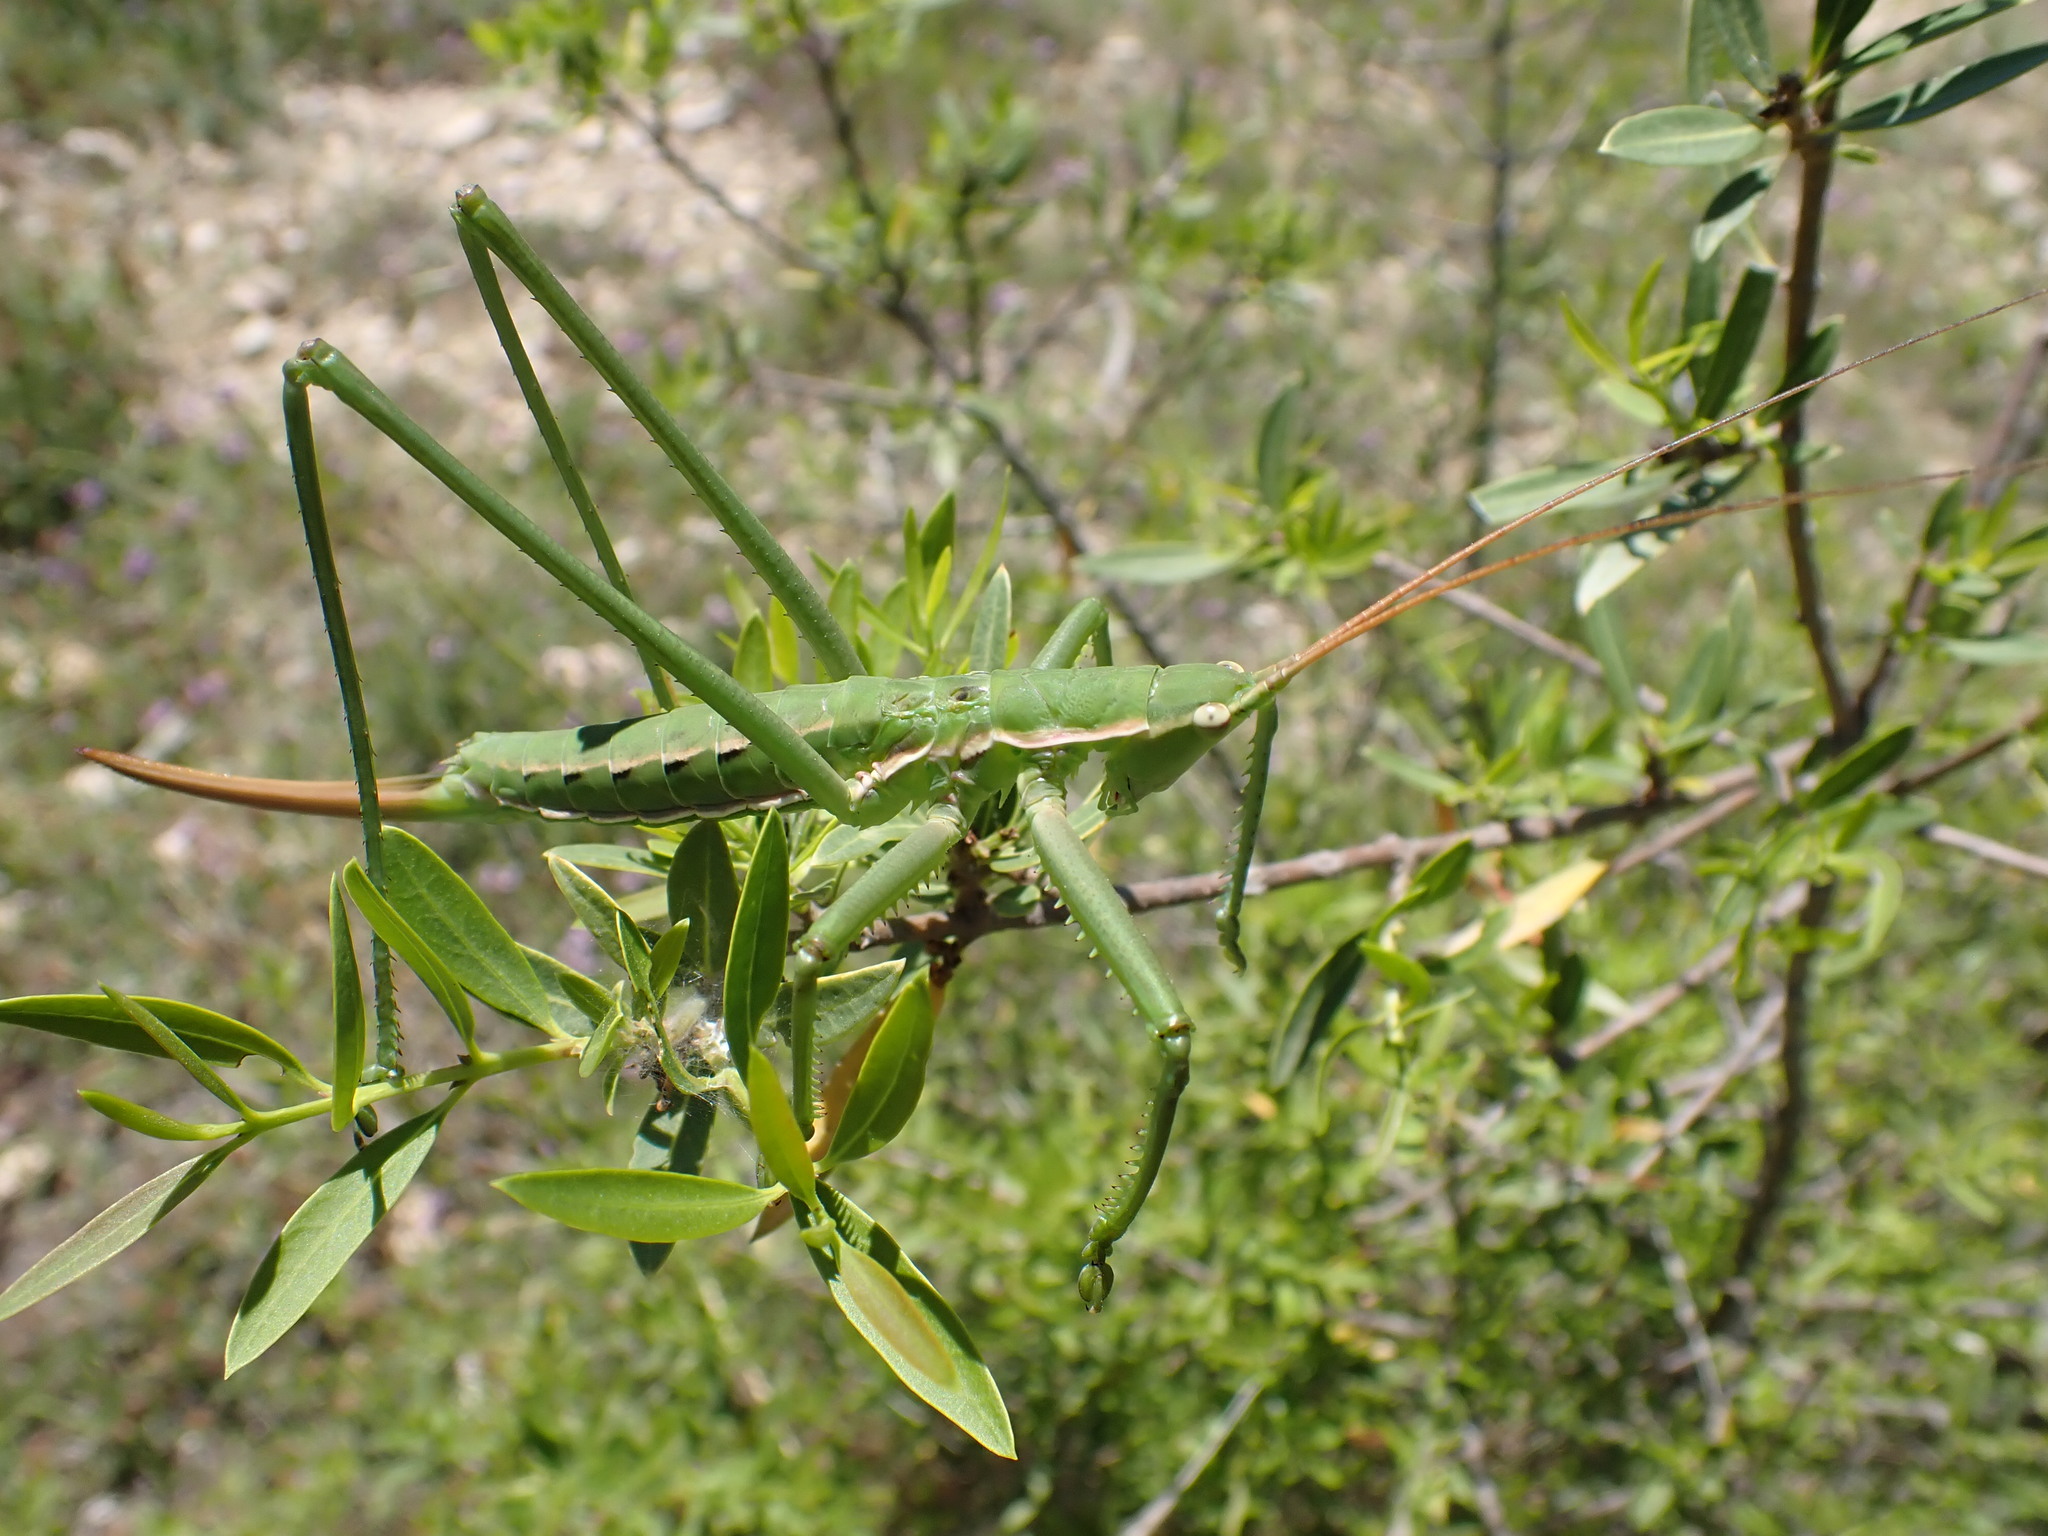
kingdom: Animalia
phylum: Arthropoda
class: Insecta
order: Orthoptera
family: Tettigoniidae
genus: Saga
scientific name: Saga pedo
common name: Common predatory bush-cricket
